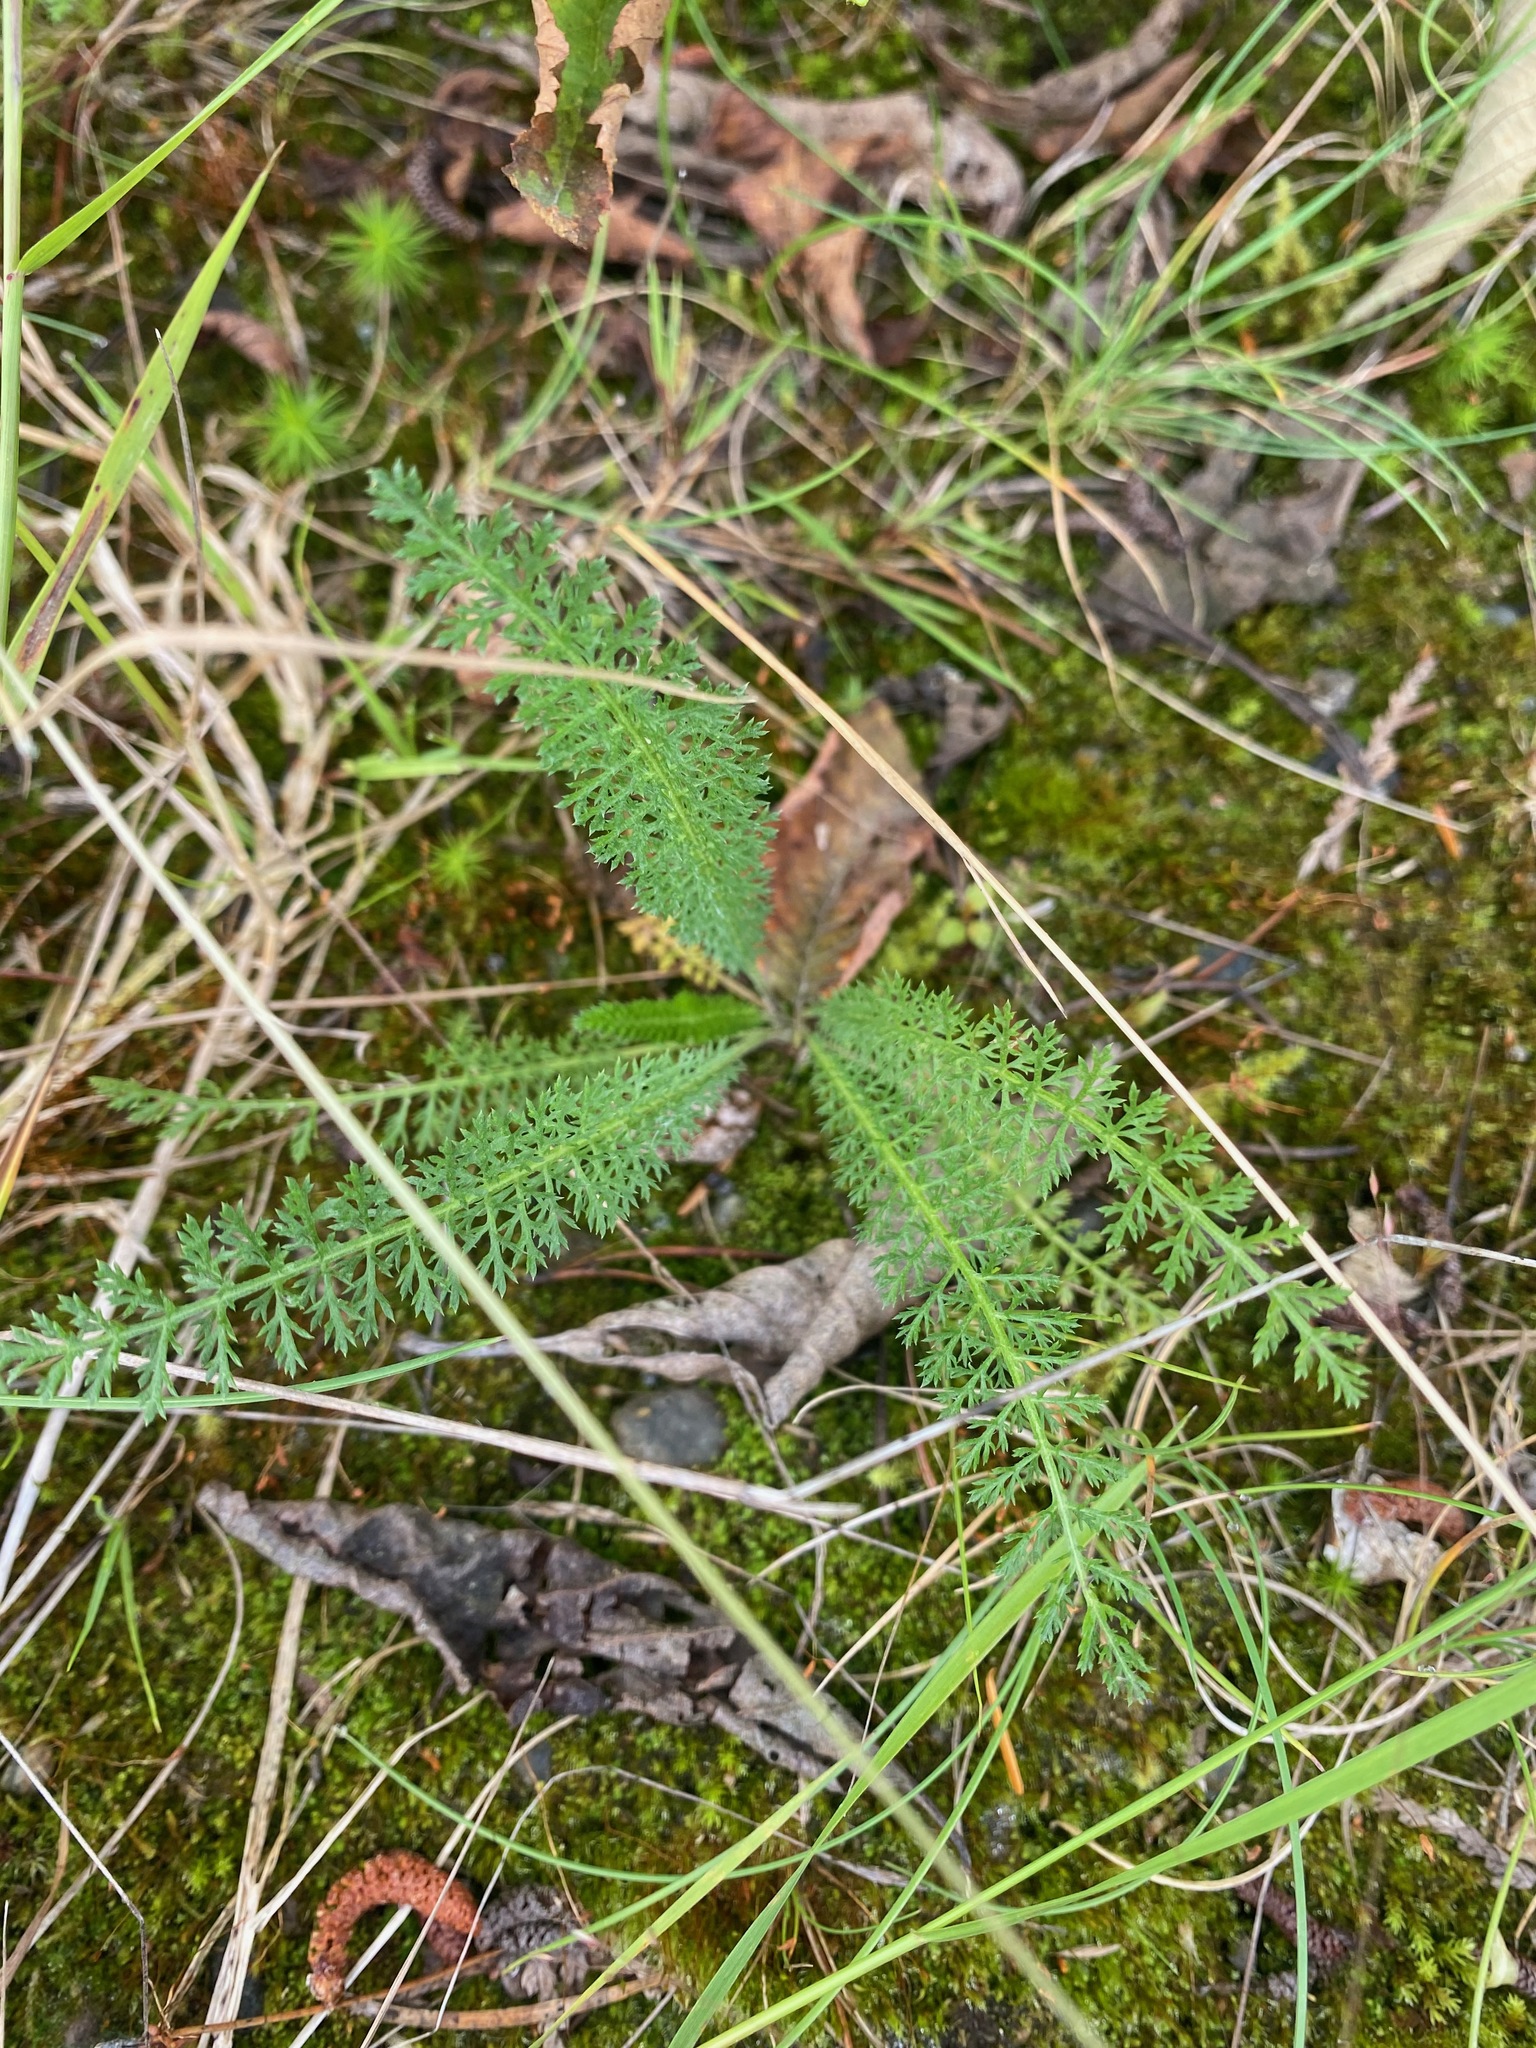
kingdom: Plantae
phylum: Tracheophyta
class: Magnoliopsida
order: Asterales
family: Asteraceae
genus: Achillea
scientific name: Achillea millefolium
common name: Yarrow
